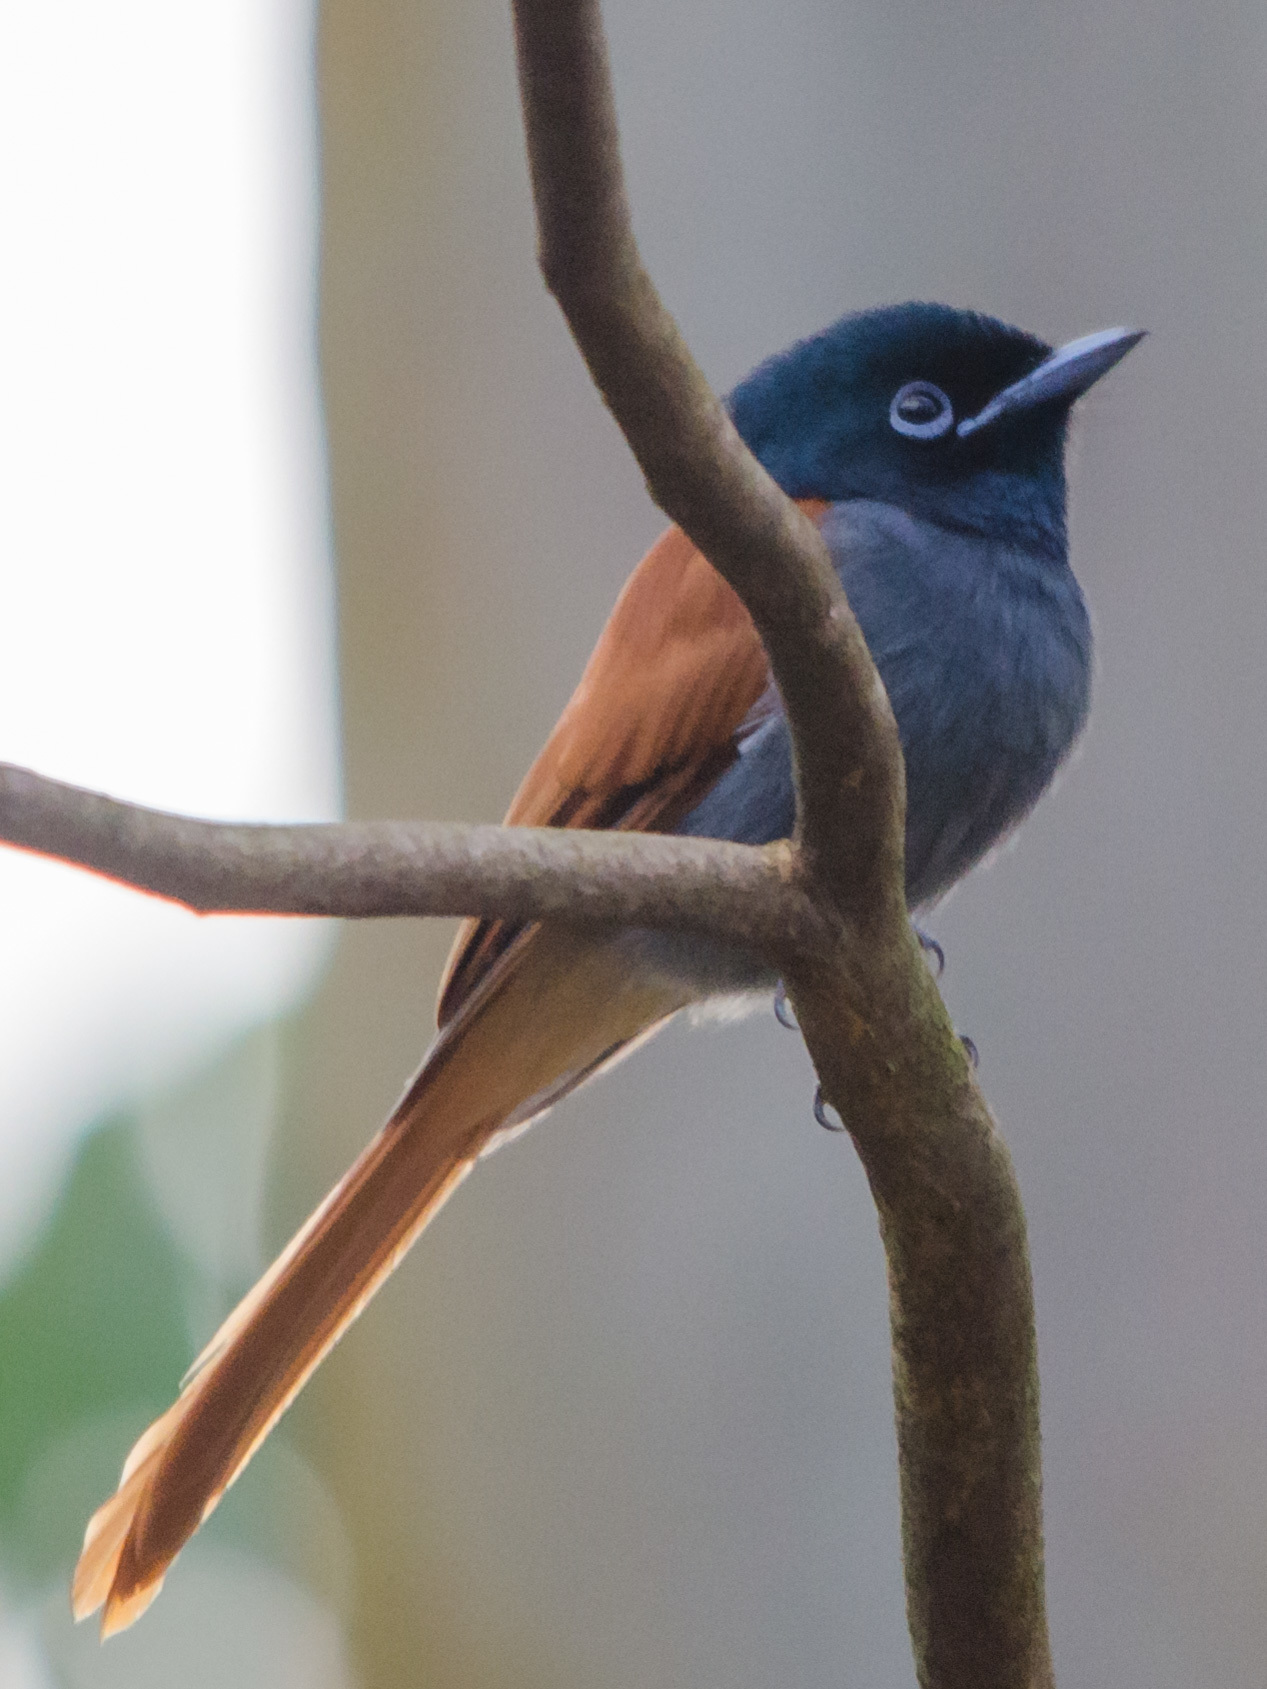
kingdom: Animalia
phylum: Chordata
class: Aves
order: Passeriformes
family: Monarchidae
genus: Terpsiphone
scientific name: Terpsiphone viridis
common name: African paradise flycatcher
